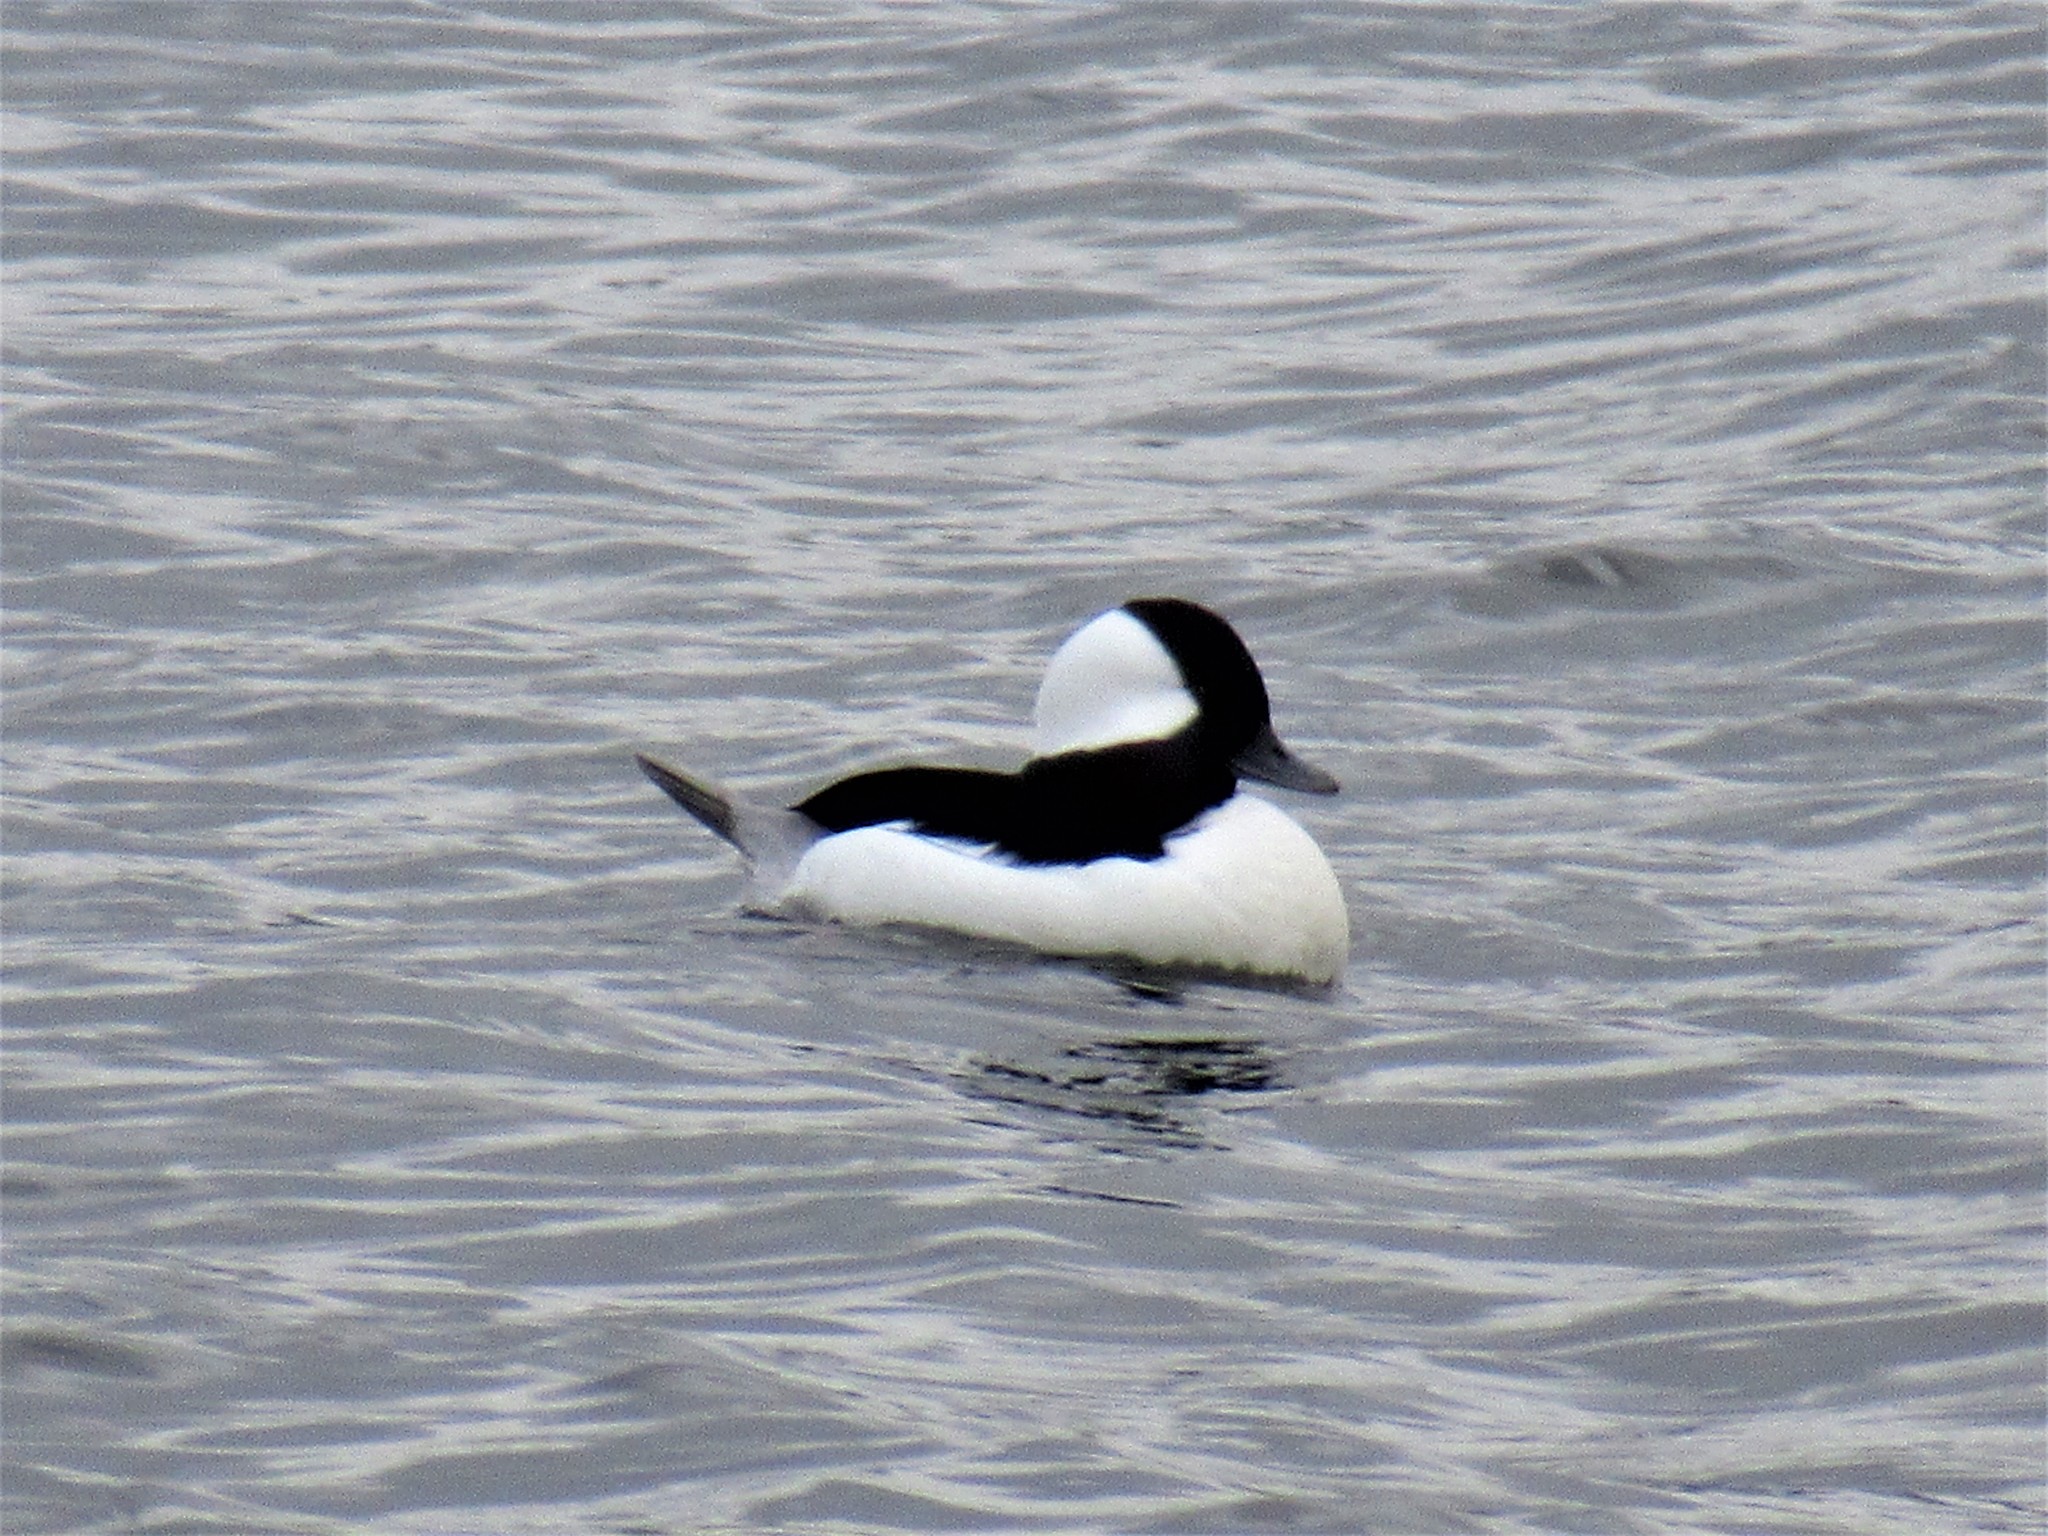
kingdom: Animalia
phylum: Chordata
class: Aves
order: Anseriformes
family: Anatidae
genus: Bucephala
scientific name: Bucephala albeola
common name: Bufflehead
